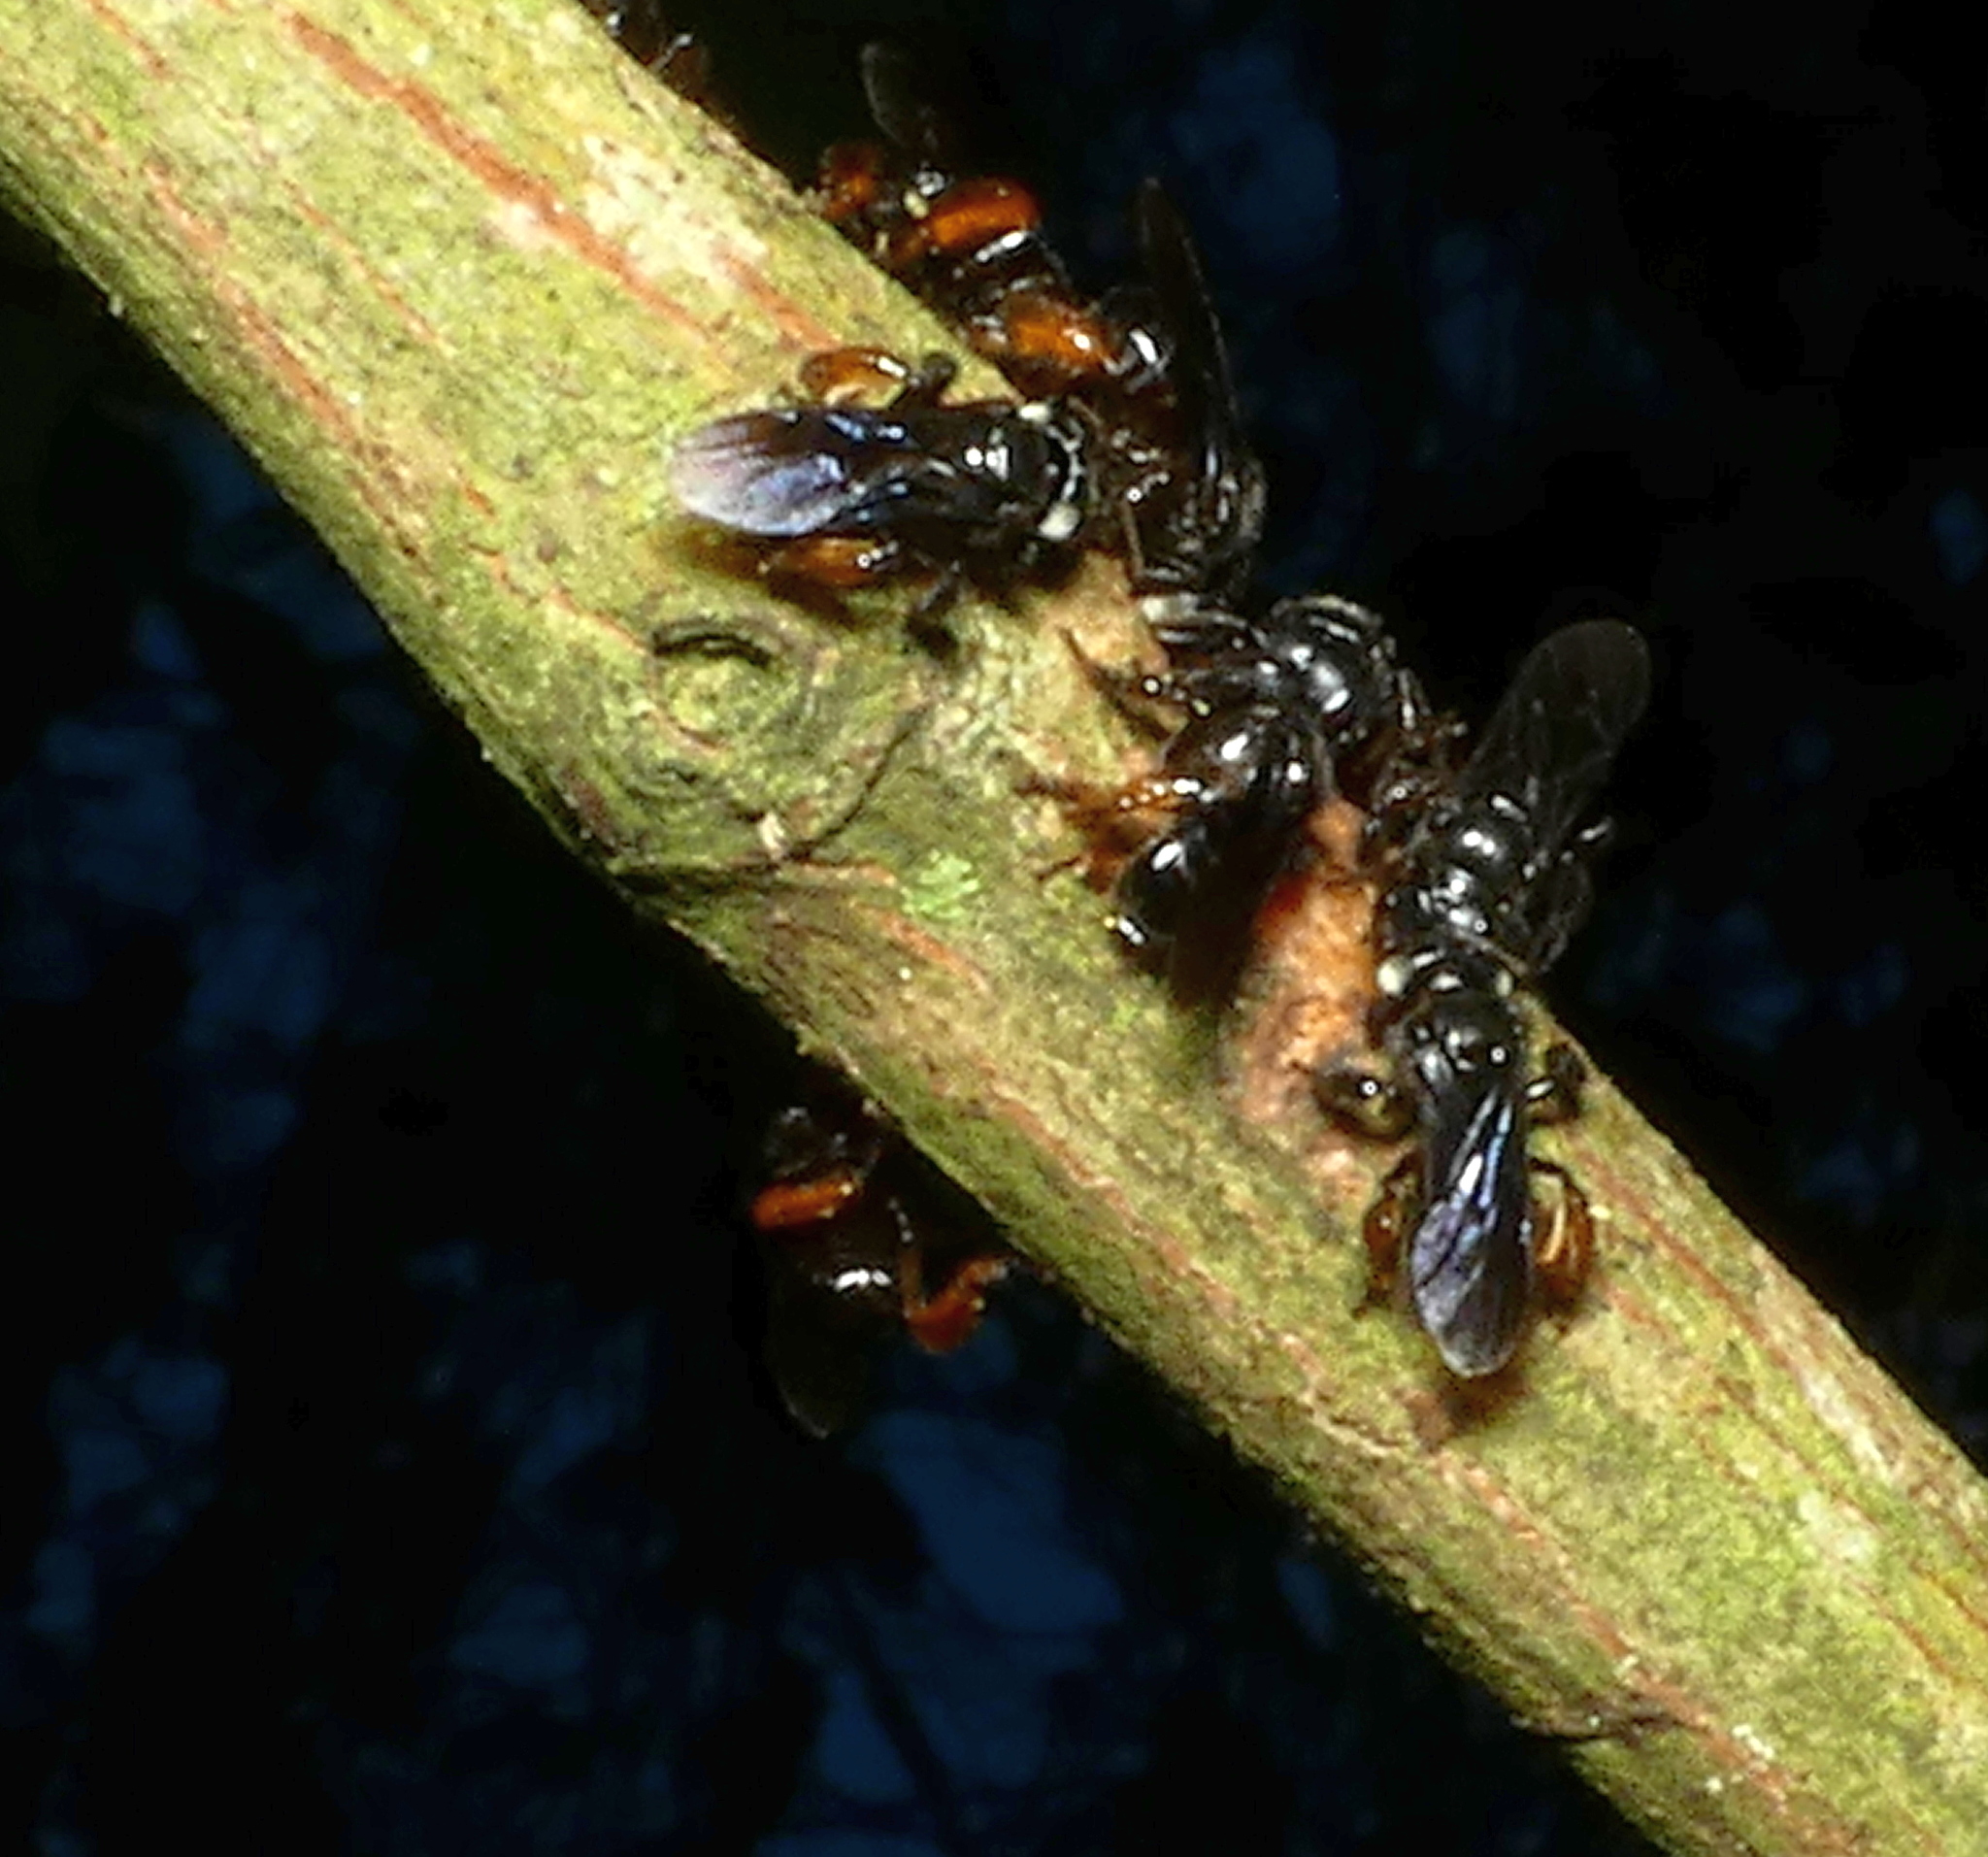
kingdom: Animalia
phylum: Arthropoda
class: Insecta
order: Hymenoptera
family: Apidae
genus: Trigona
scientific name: Trigona spinipes
